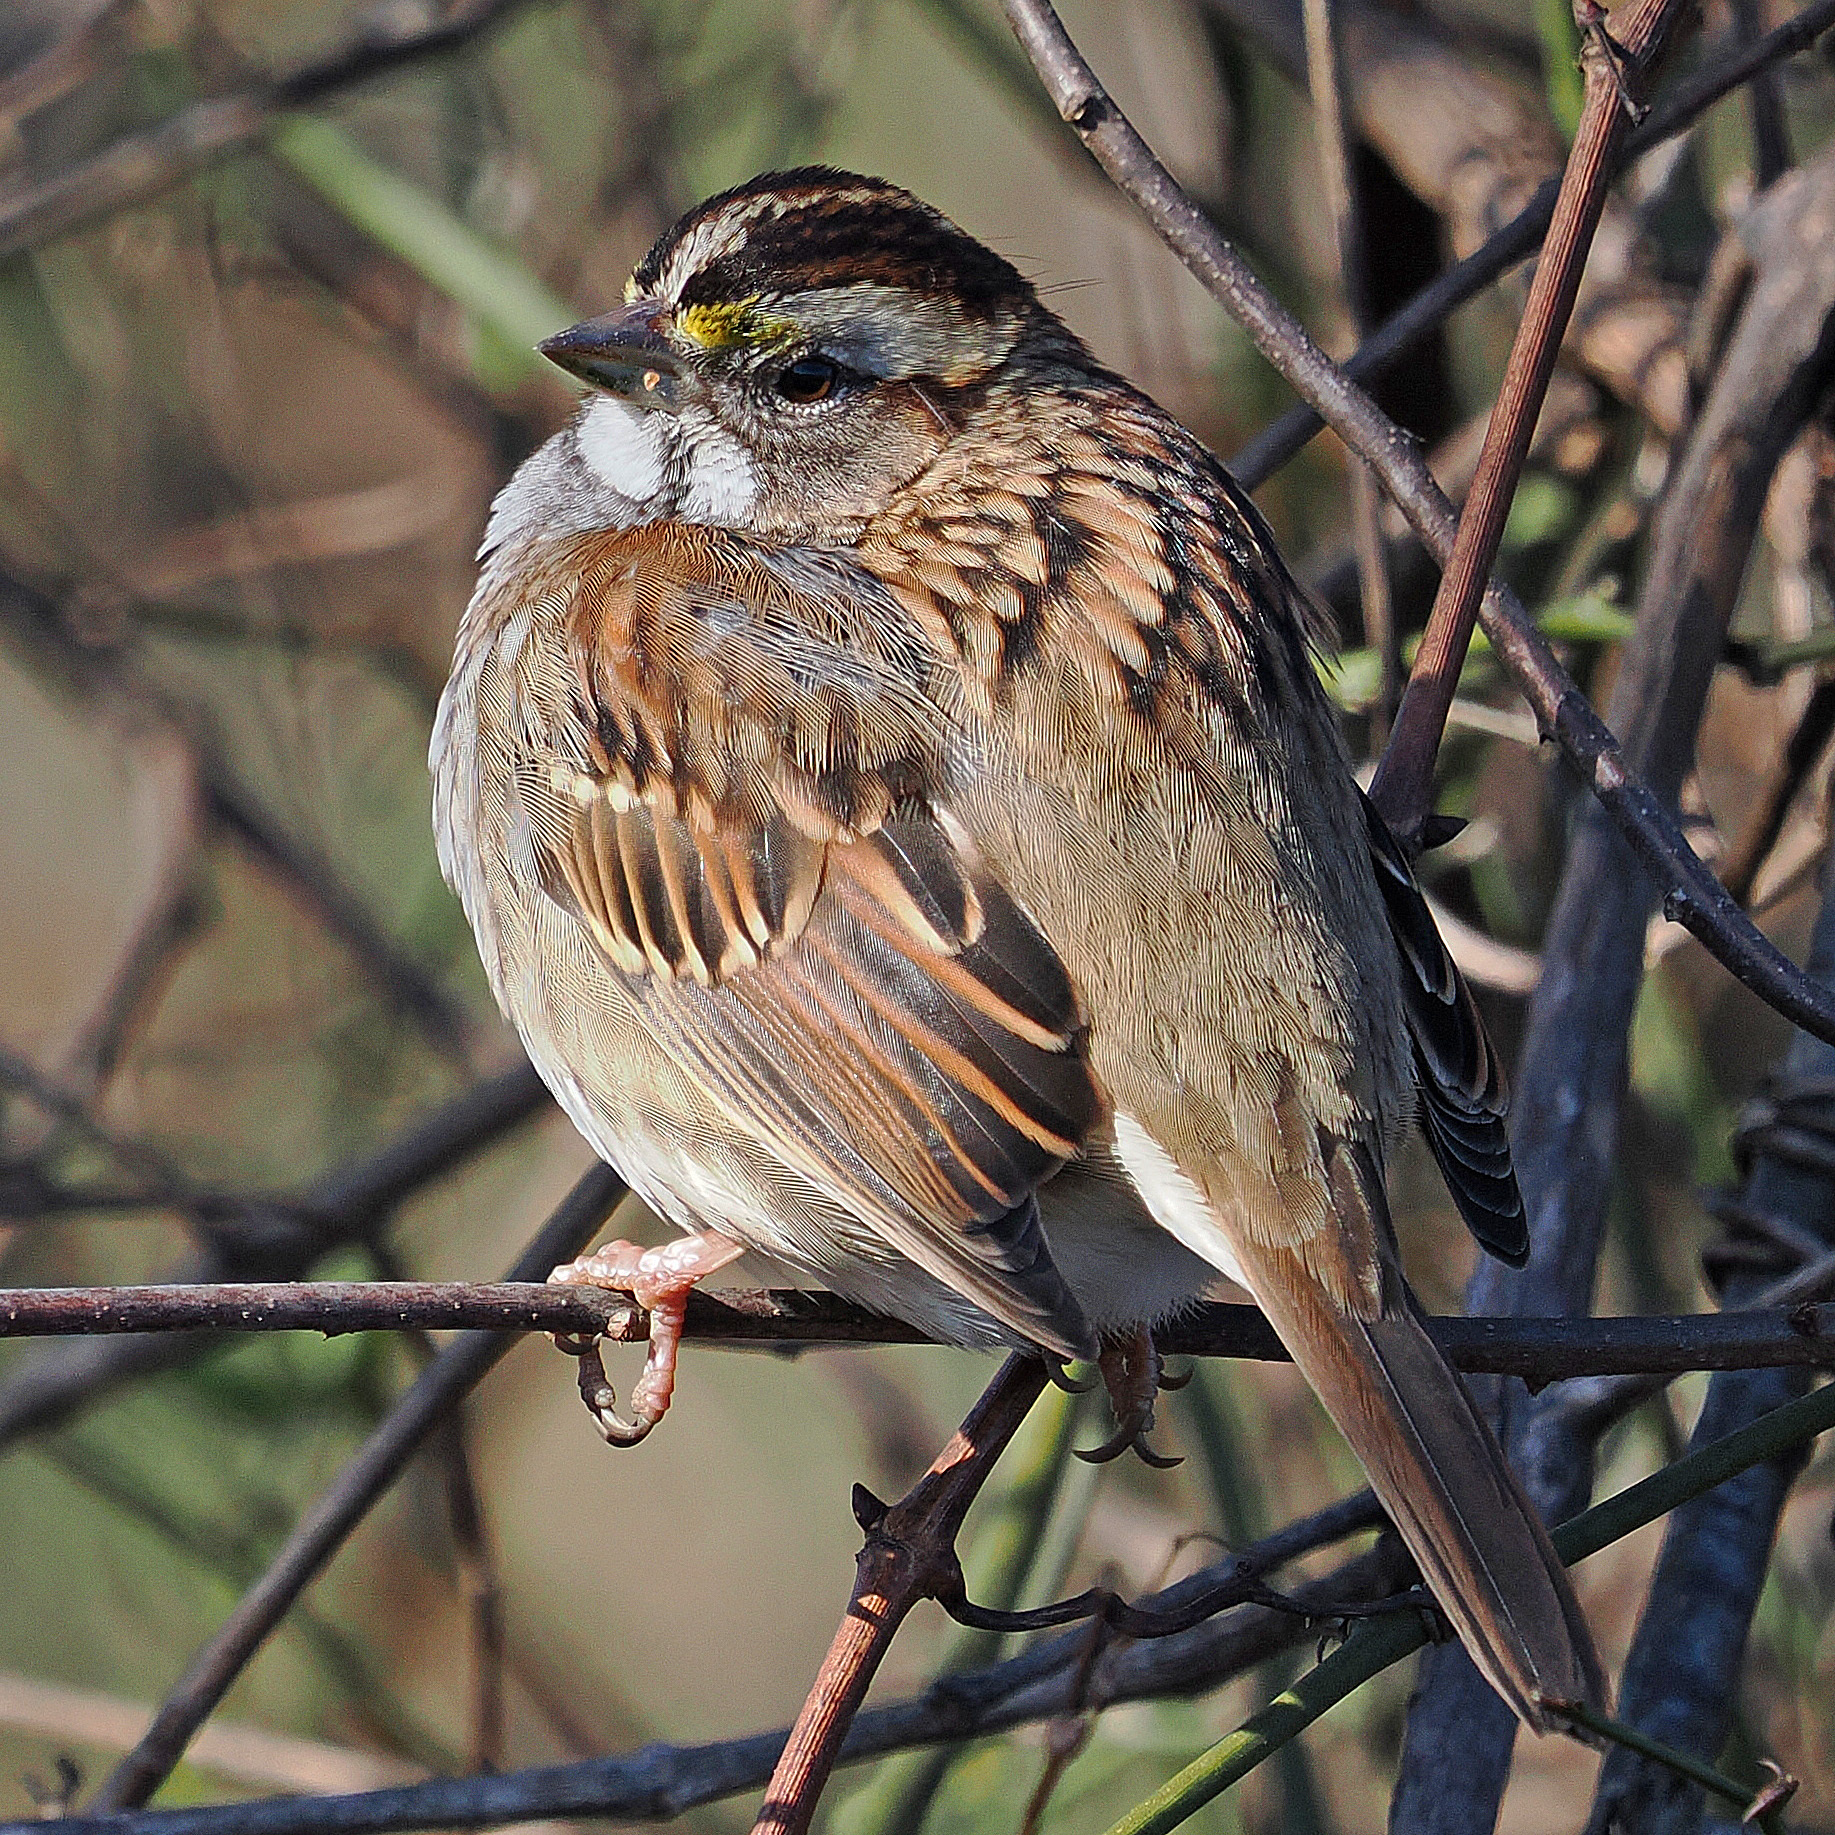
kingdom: Animalia
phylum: Chordata
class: Aves
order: Passeriformes
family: Passerellidae
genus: Zonotrichia
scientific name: Zonotrichia albicollis
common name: White-throated sparrow
